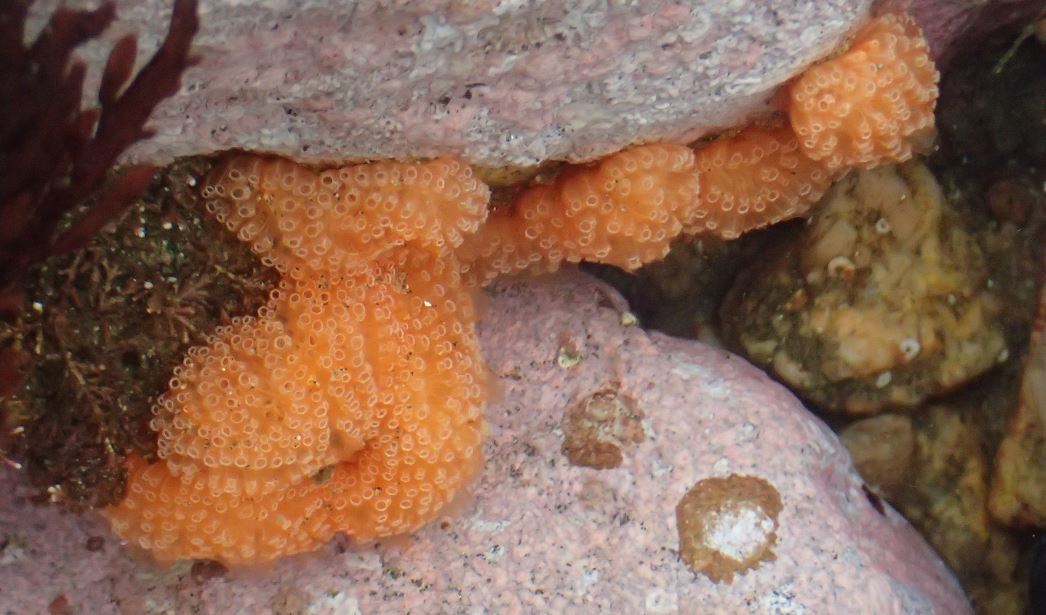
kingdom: Animalia
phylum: Chordata
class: Ascidiacea
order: Aplousobranchia
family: Polyclinidae
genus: Aplidium
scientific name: Aplidium benhami
